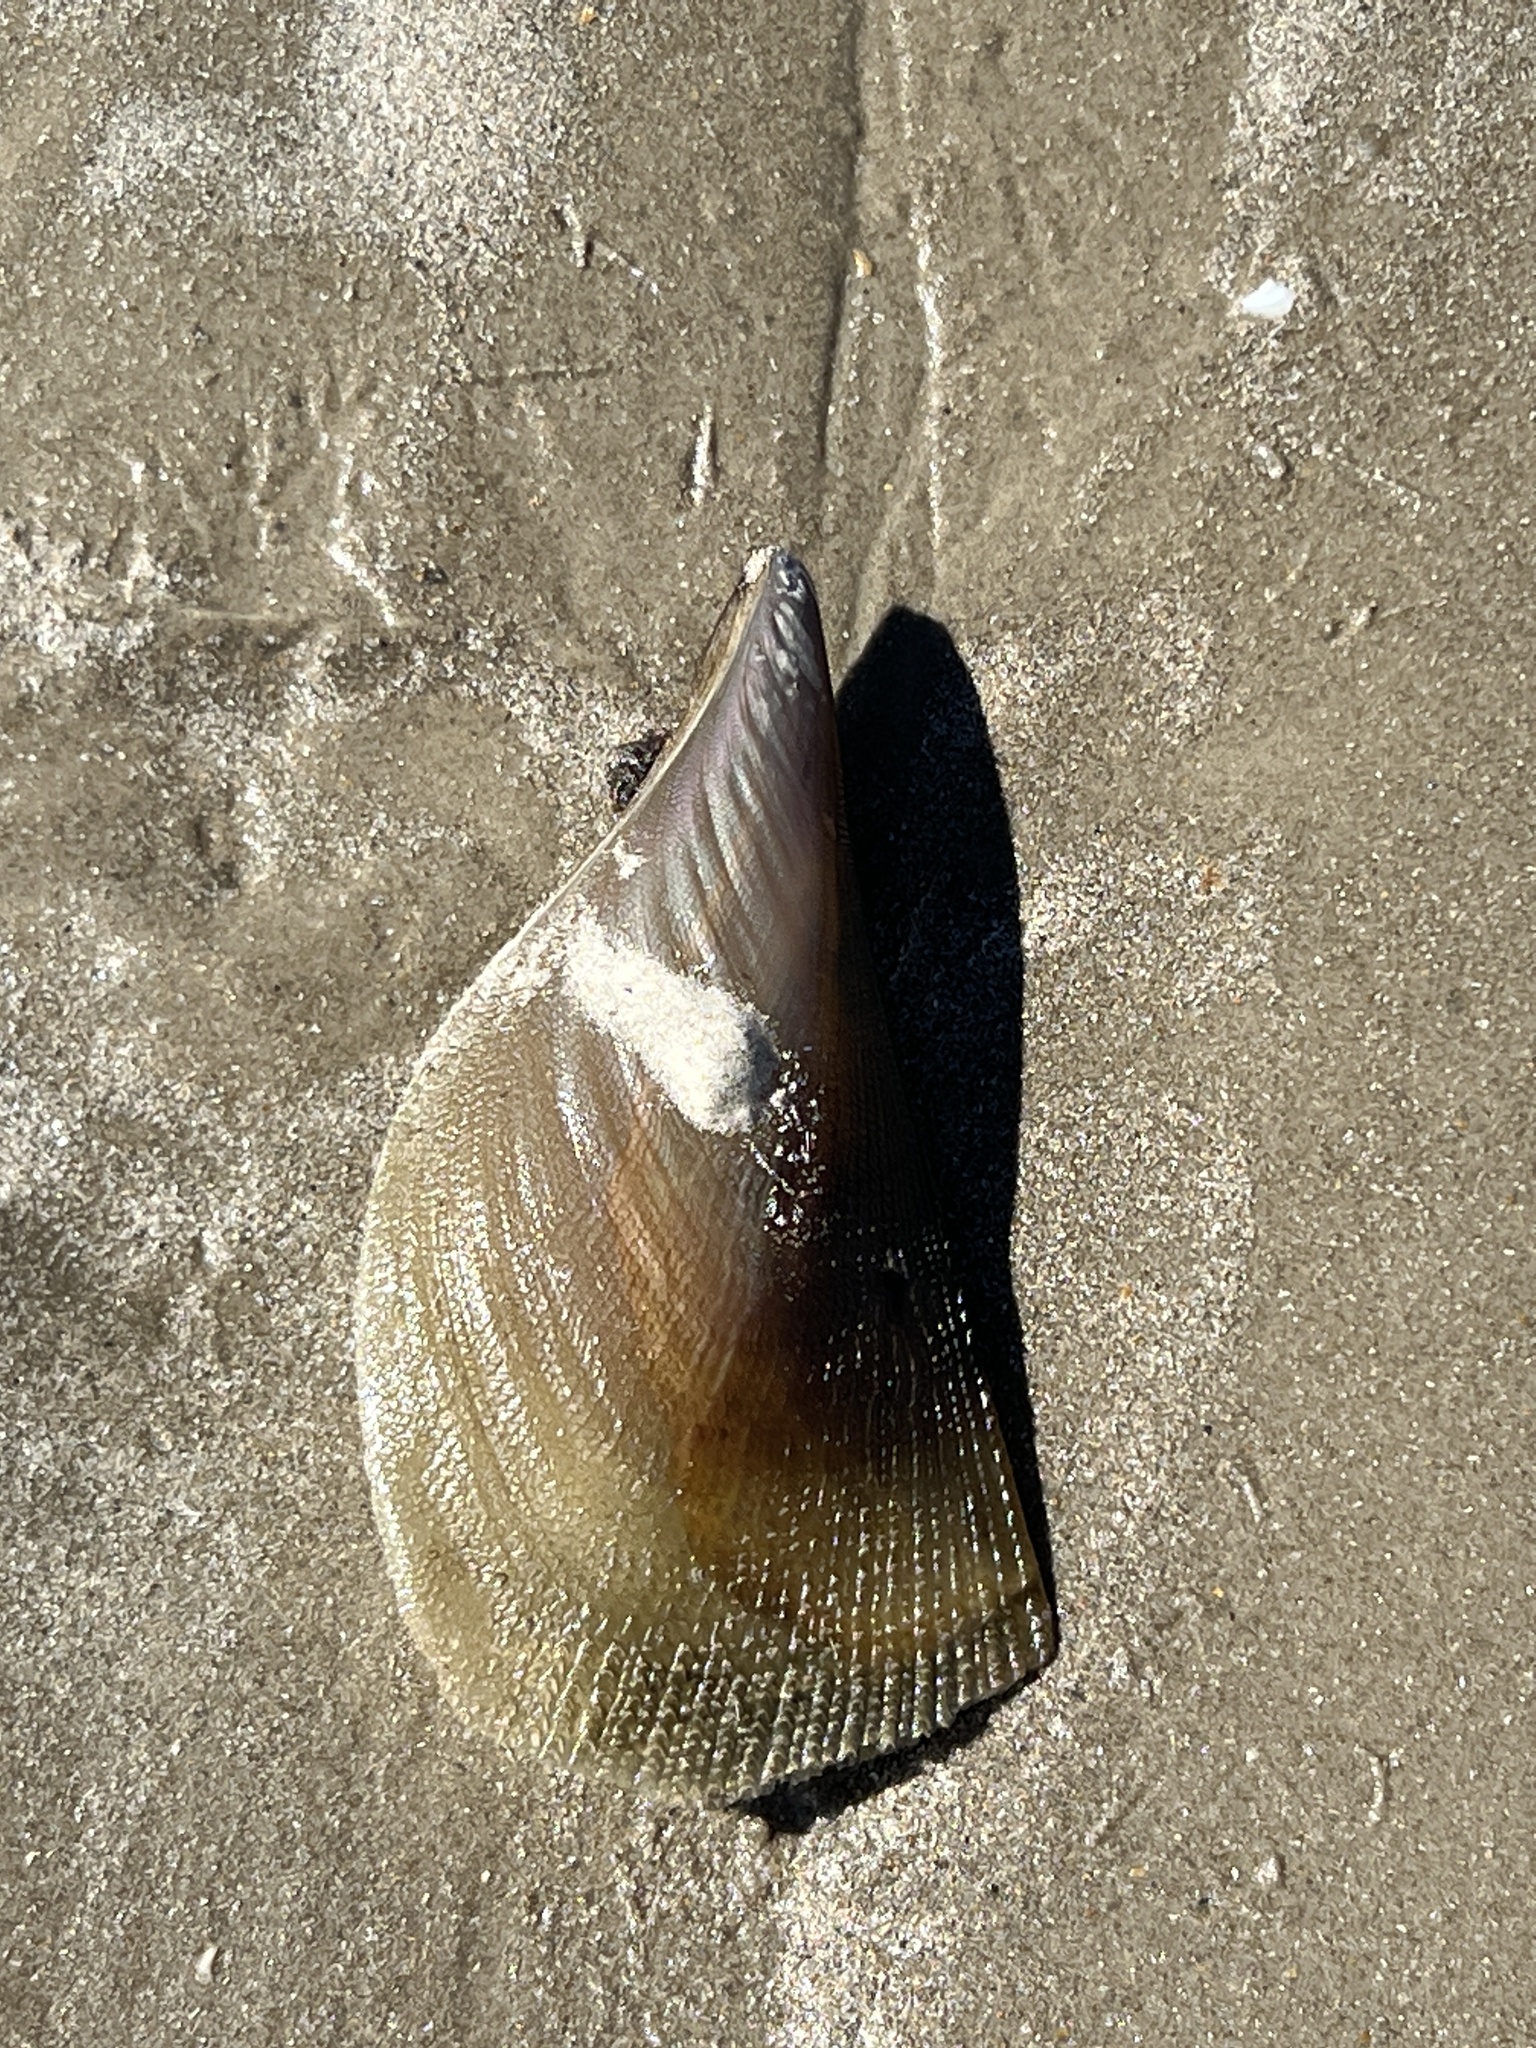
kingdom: Animalia
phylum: Mollusca
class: Bivalvia
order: Ostreida
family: Pinnidae
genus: Atrina
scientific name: Atrina serrata
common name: Saw-toothed penshell
